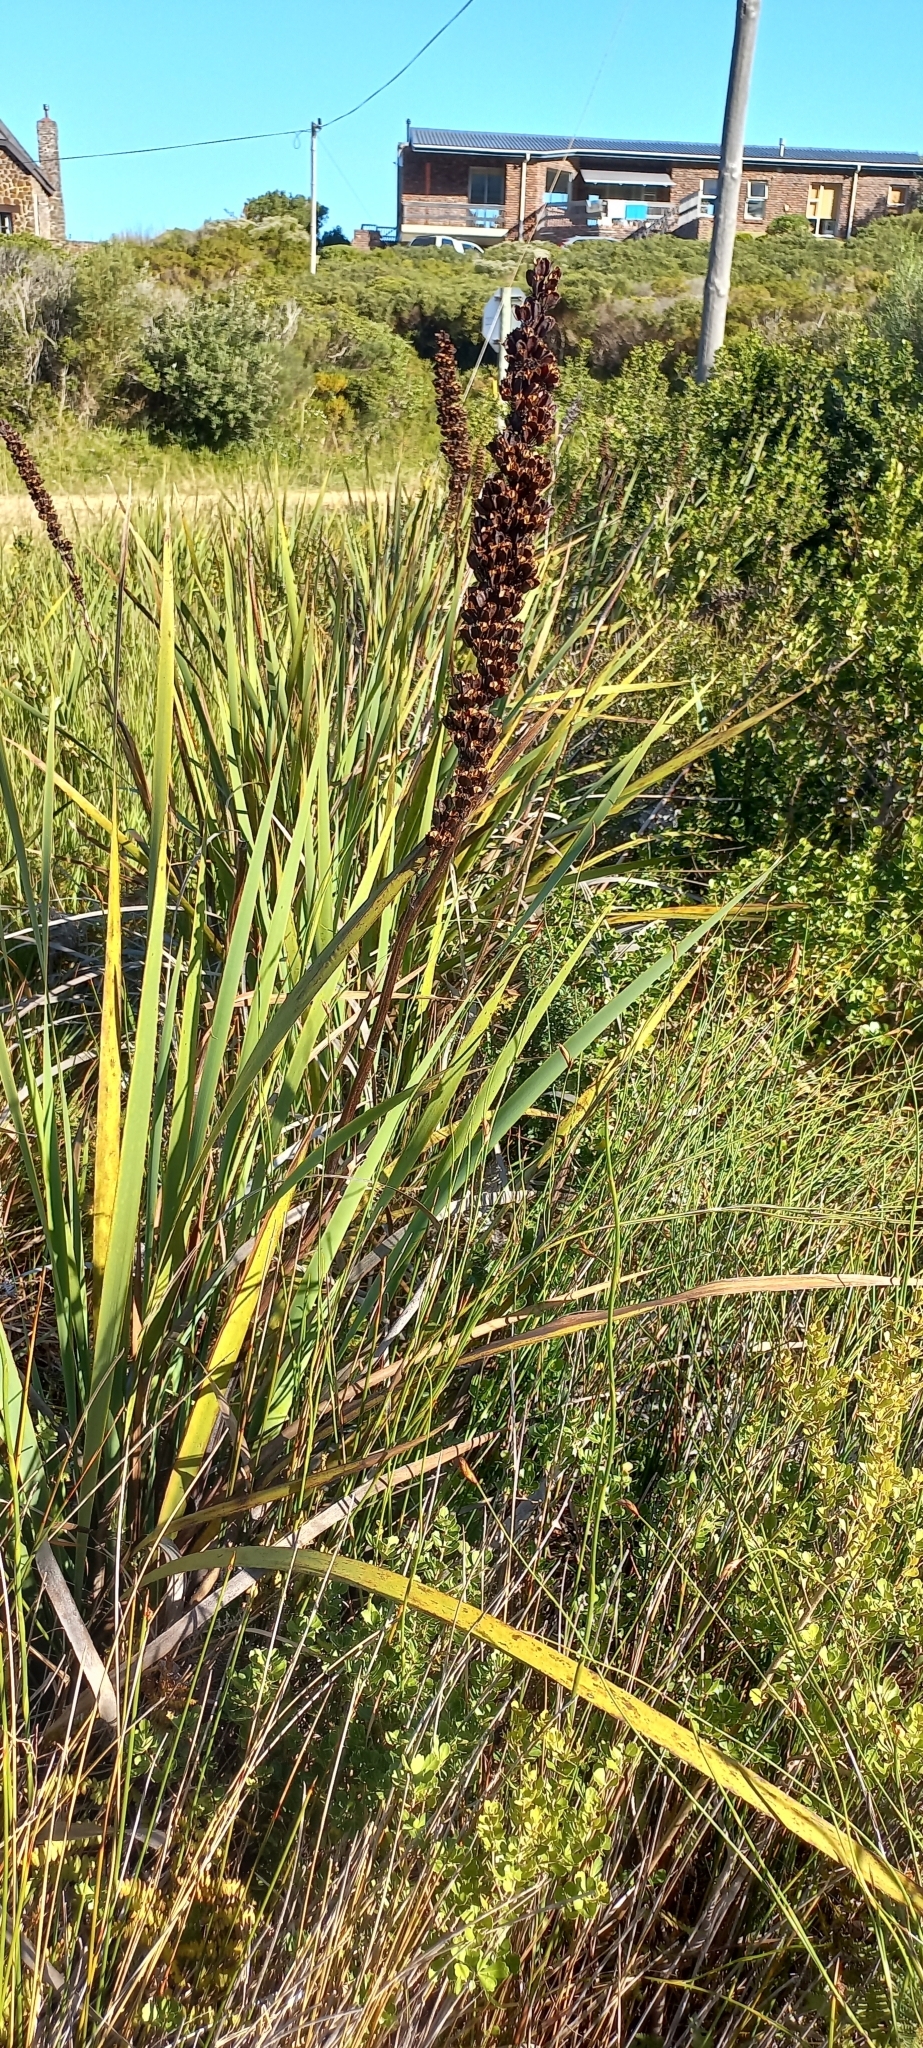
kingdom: Plantae
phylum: Tracheophyta
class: Liliopsida
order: Asparagales
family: Iridaceae
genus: Aristea
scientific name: Aristea capitata
